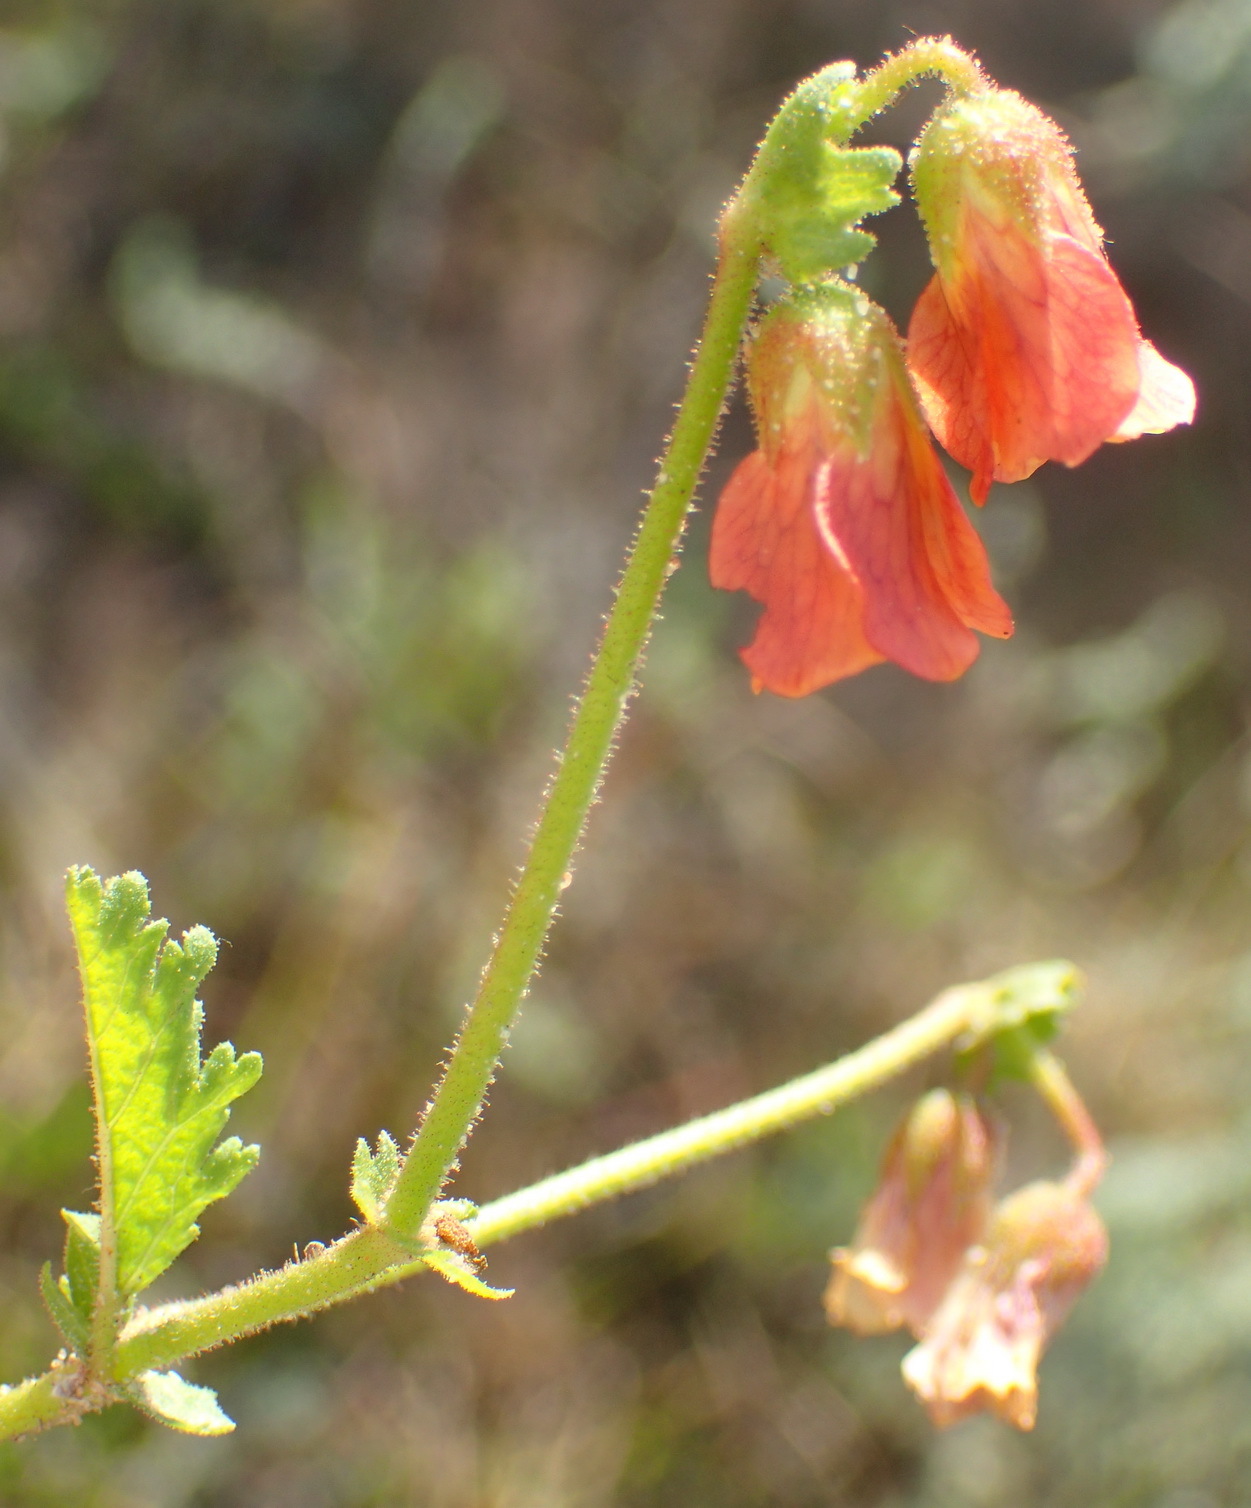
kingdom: Plantae
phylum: Tracheophyta
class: Magnoliopsida
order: Malvales
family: Malvaceae
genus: Hermannia
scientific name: Hermannia diffusa
